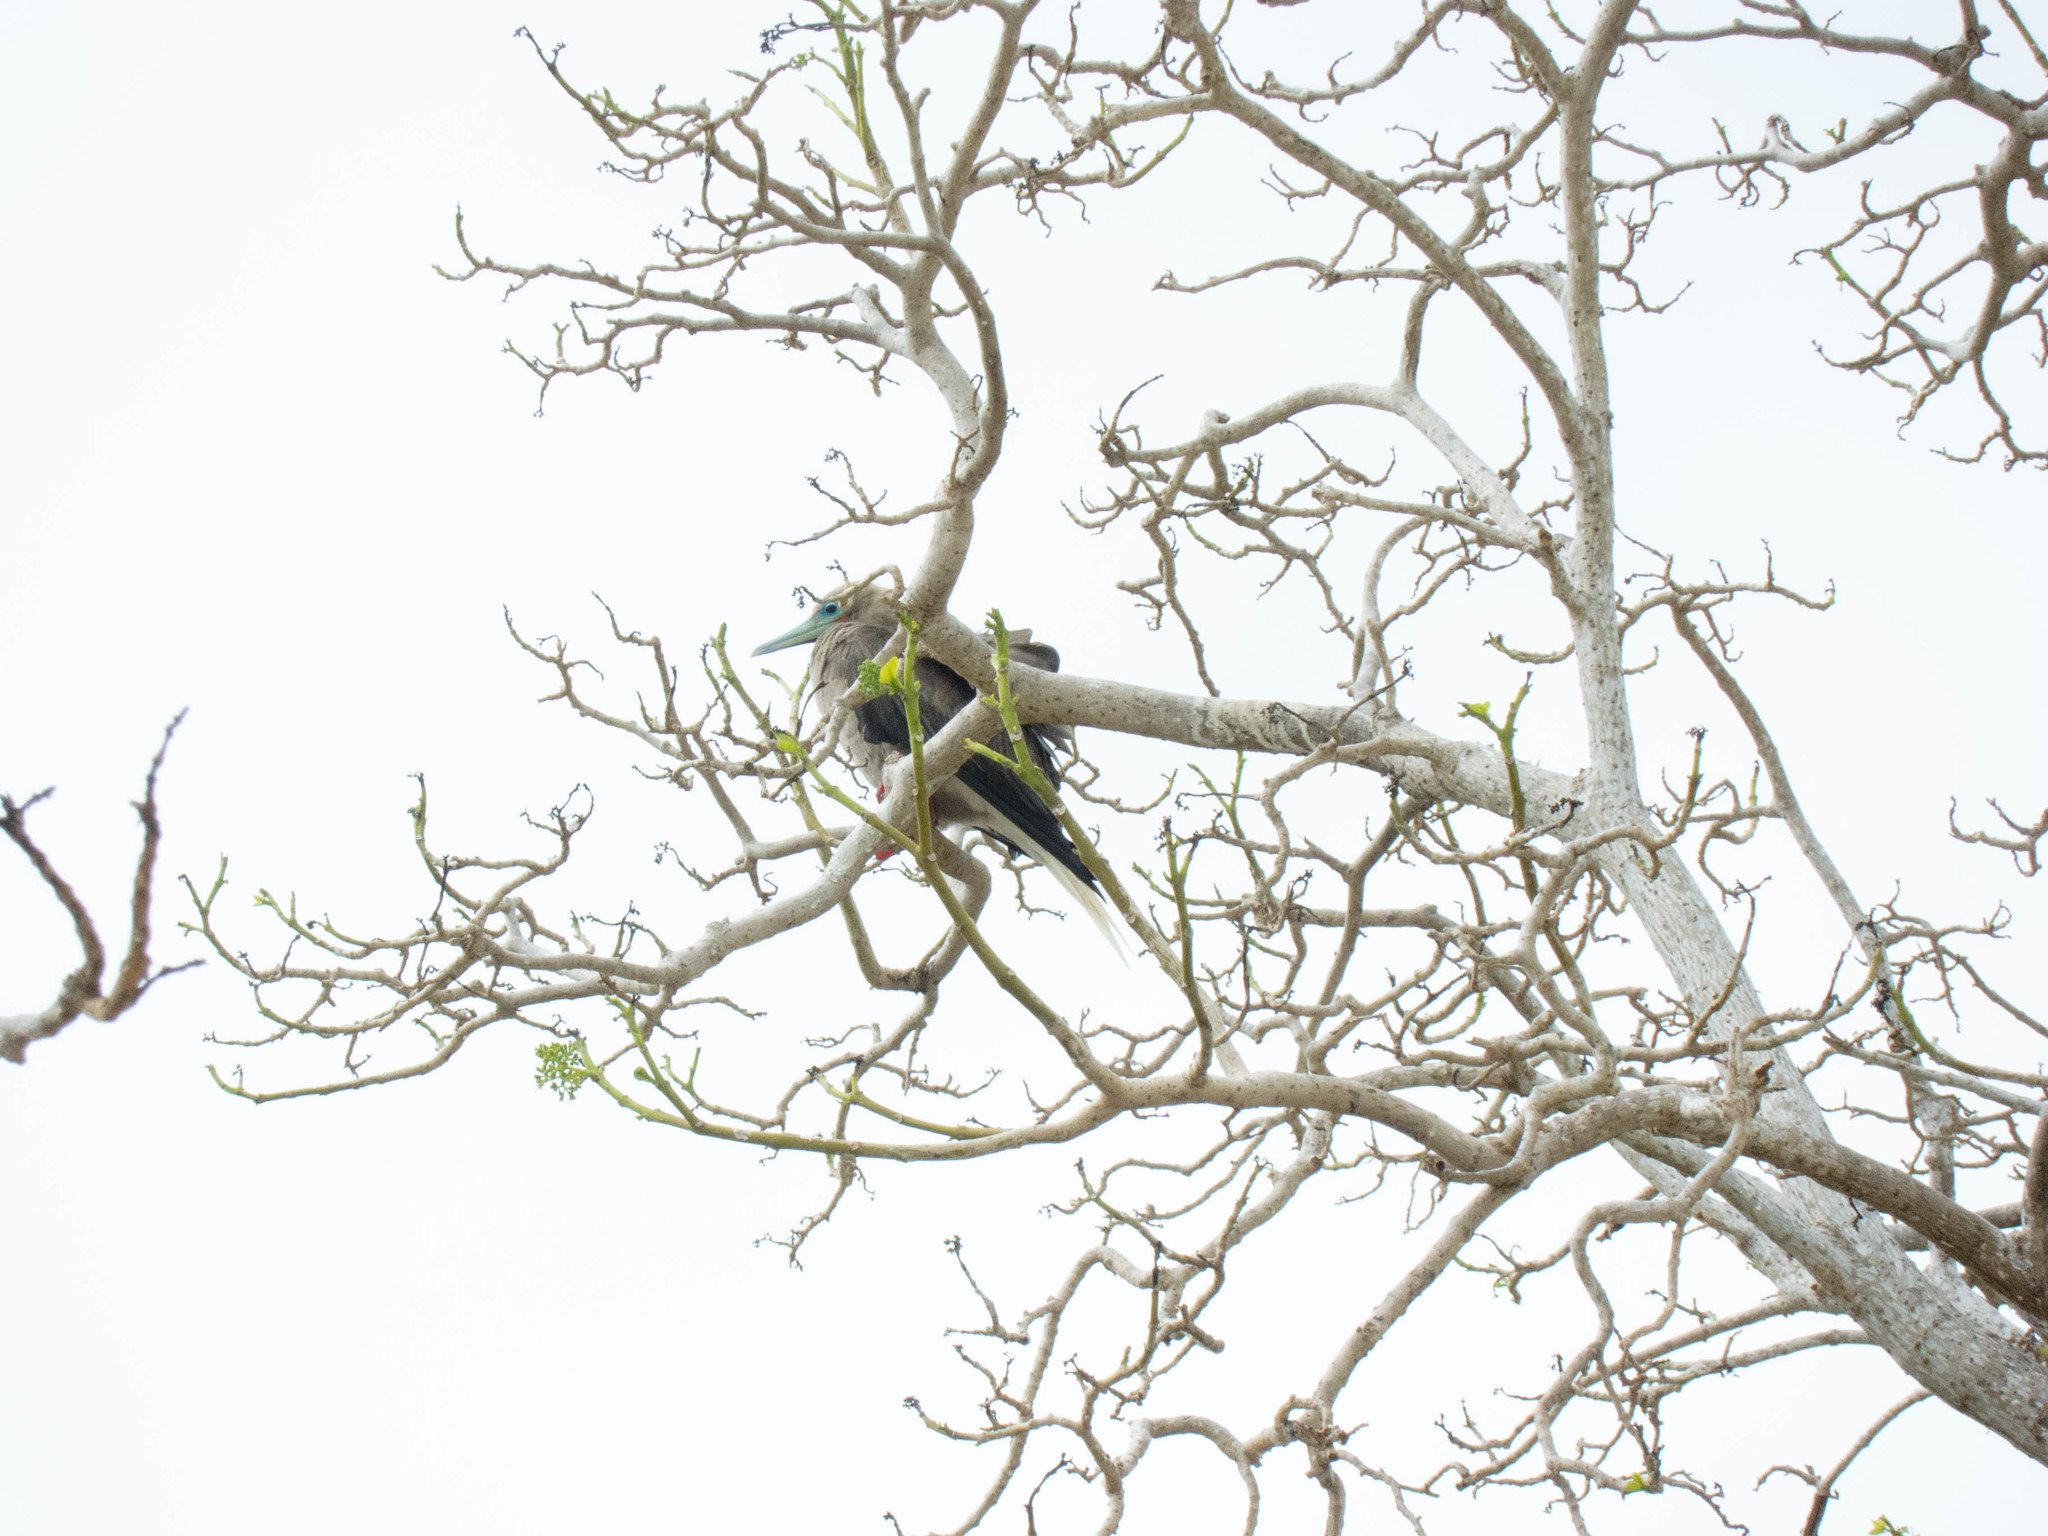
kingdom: Animalia
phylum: Chordata
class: Aves
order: Suliformes
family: Sulidae
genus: Sula
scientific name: Sula sula
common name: Red-footed booby
